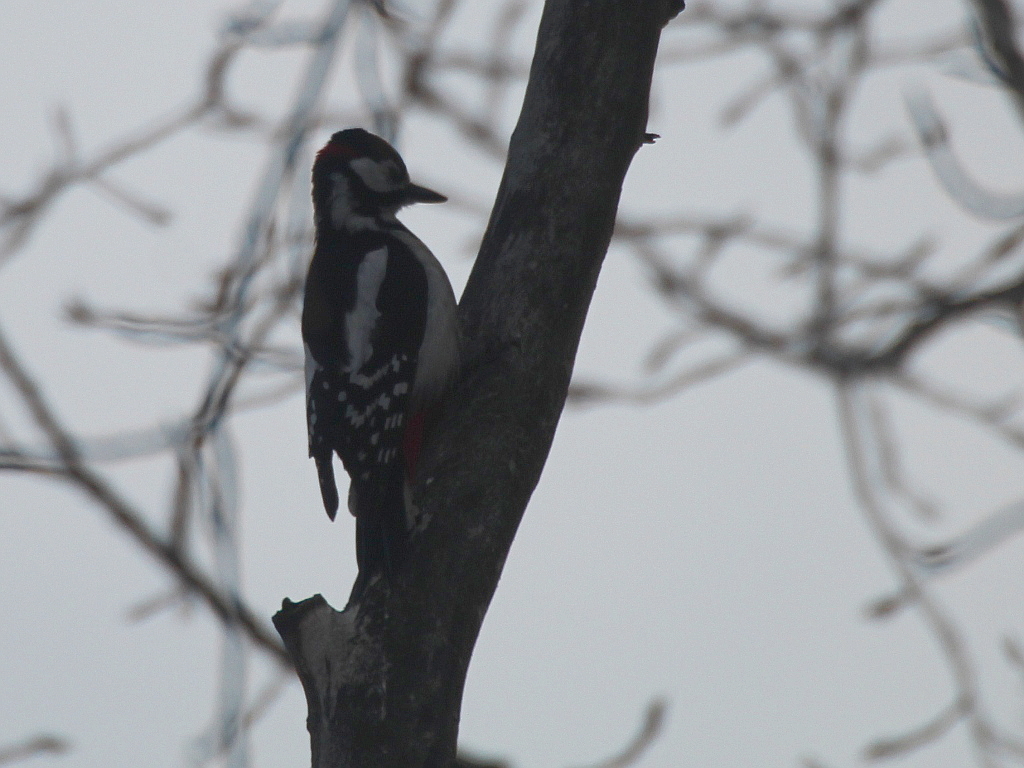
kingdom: Animalia
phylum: Chordata
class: Aves
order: Piciformes
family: Picidae
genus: Dendrocopos
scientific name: Dendrocopos major
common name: Great spotted woodpecker
